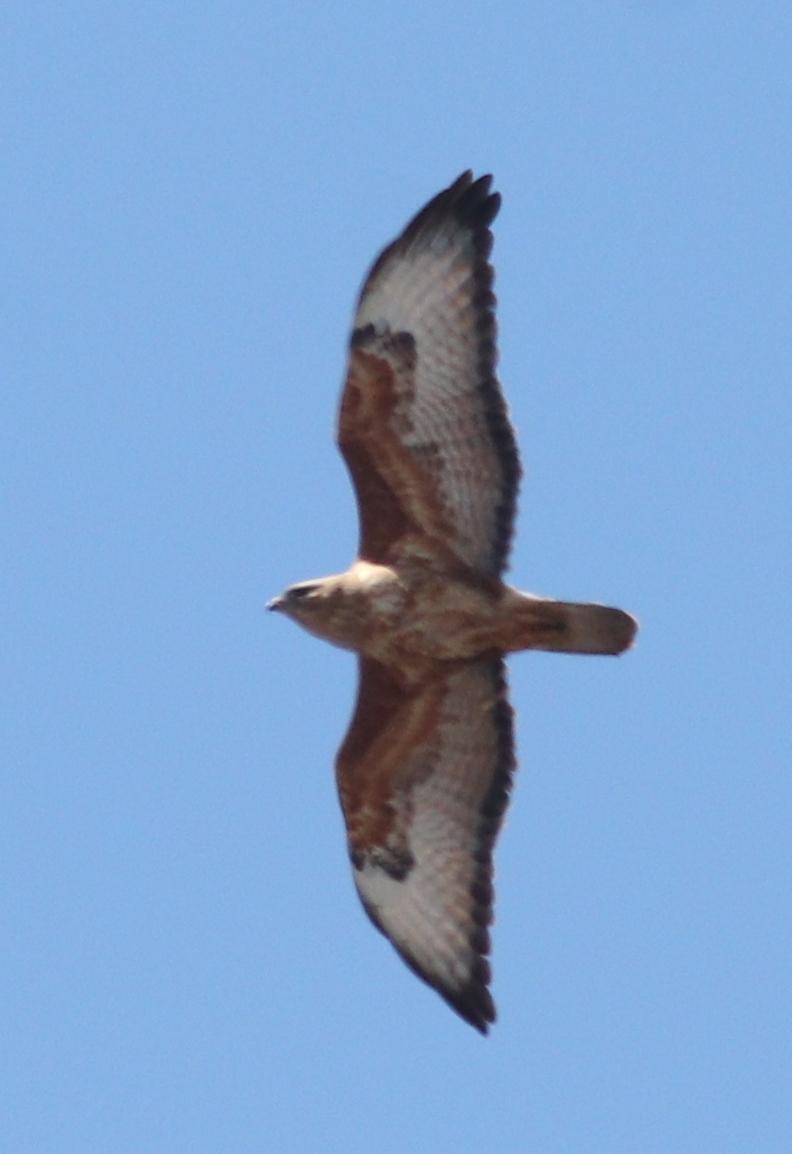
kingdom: Animalia
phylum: Chordata
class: Aves
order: Accipitriformes
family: Accipitridae
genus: Buteo
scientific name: Buteo buteo
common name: Common buzzard
